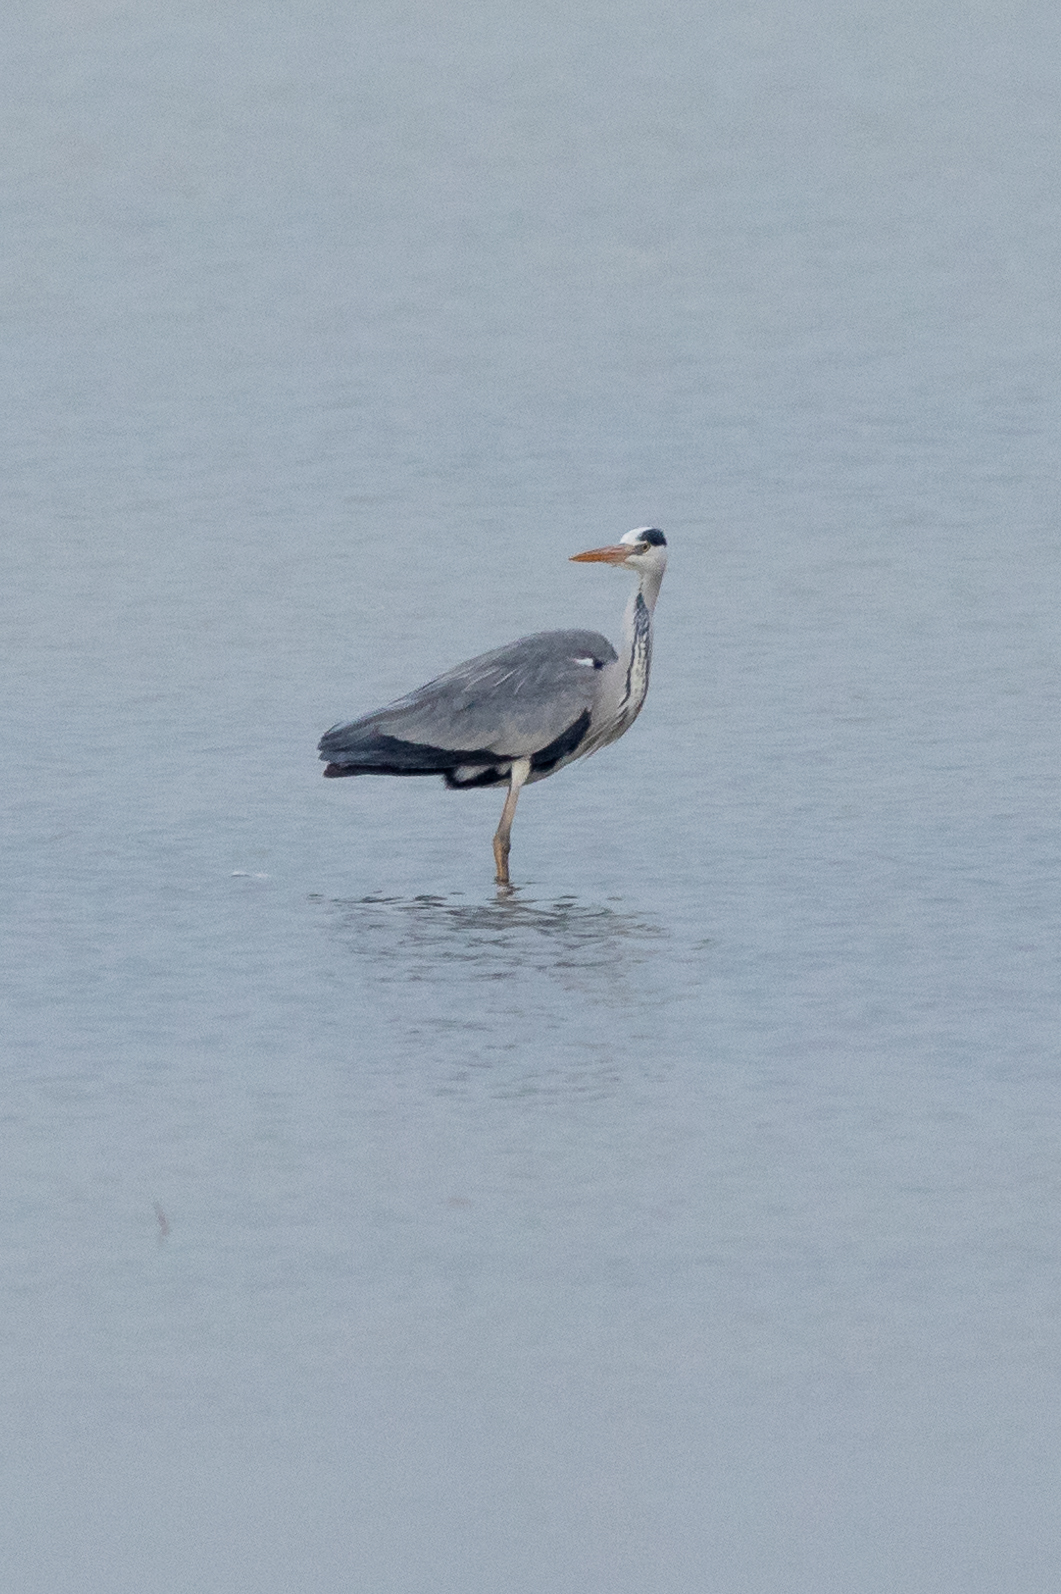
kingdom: Animalia
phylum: Chordata
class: Aves
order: Pelecaniformes
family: Ardeidae
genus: Ardea
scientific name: Ardea cinerea
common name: Grey heron
